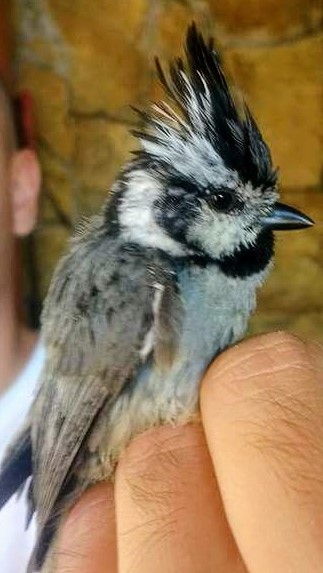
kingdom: Animalia
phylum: Chordata
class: Aves
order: Passeriformes
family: Paridae
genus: Baeolophus
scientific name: Baeolophus wollweberi
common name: Bridled titmouse
